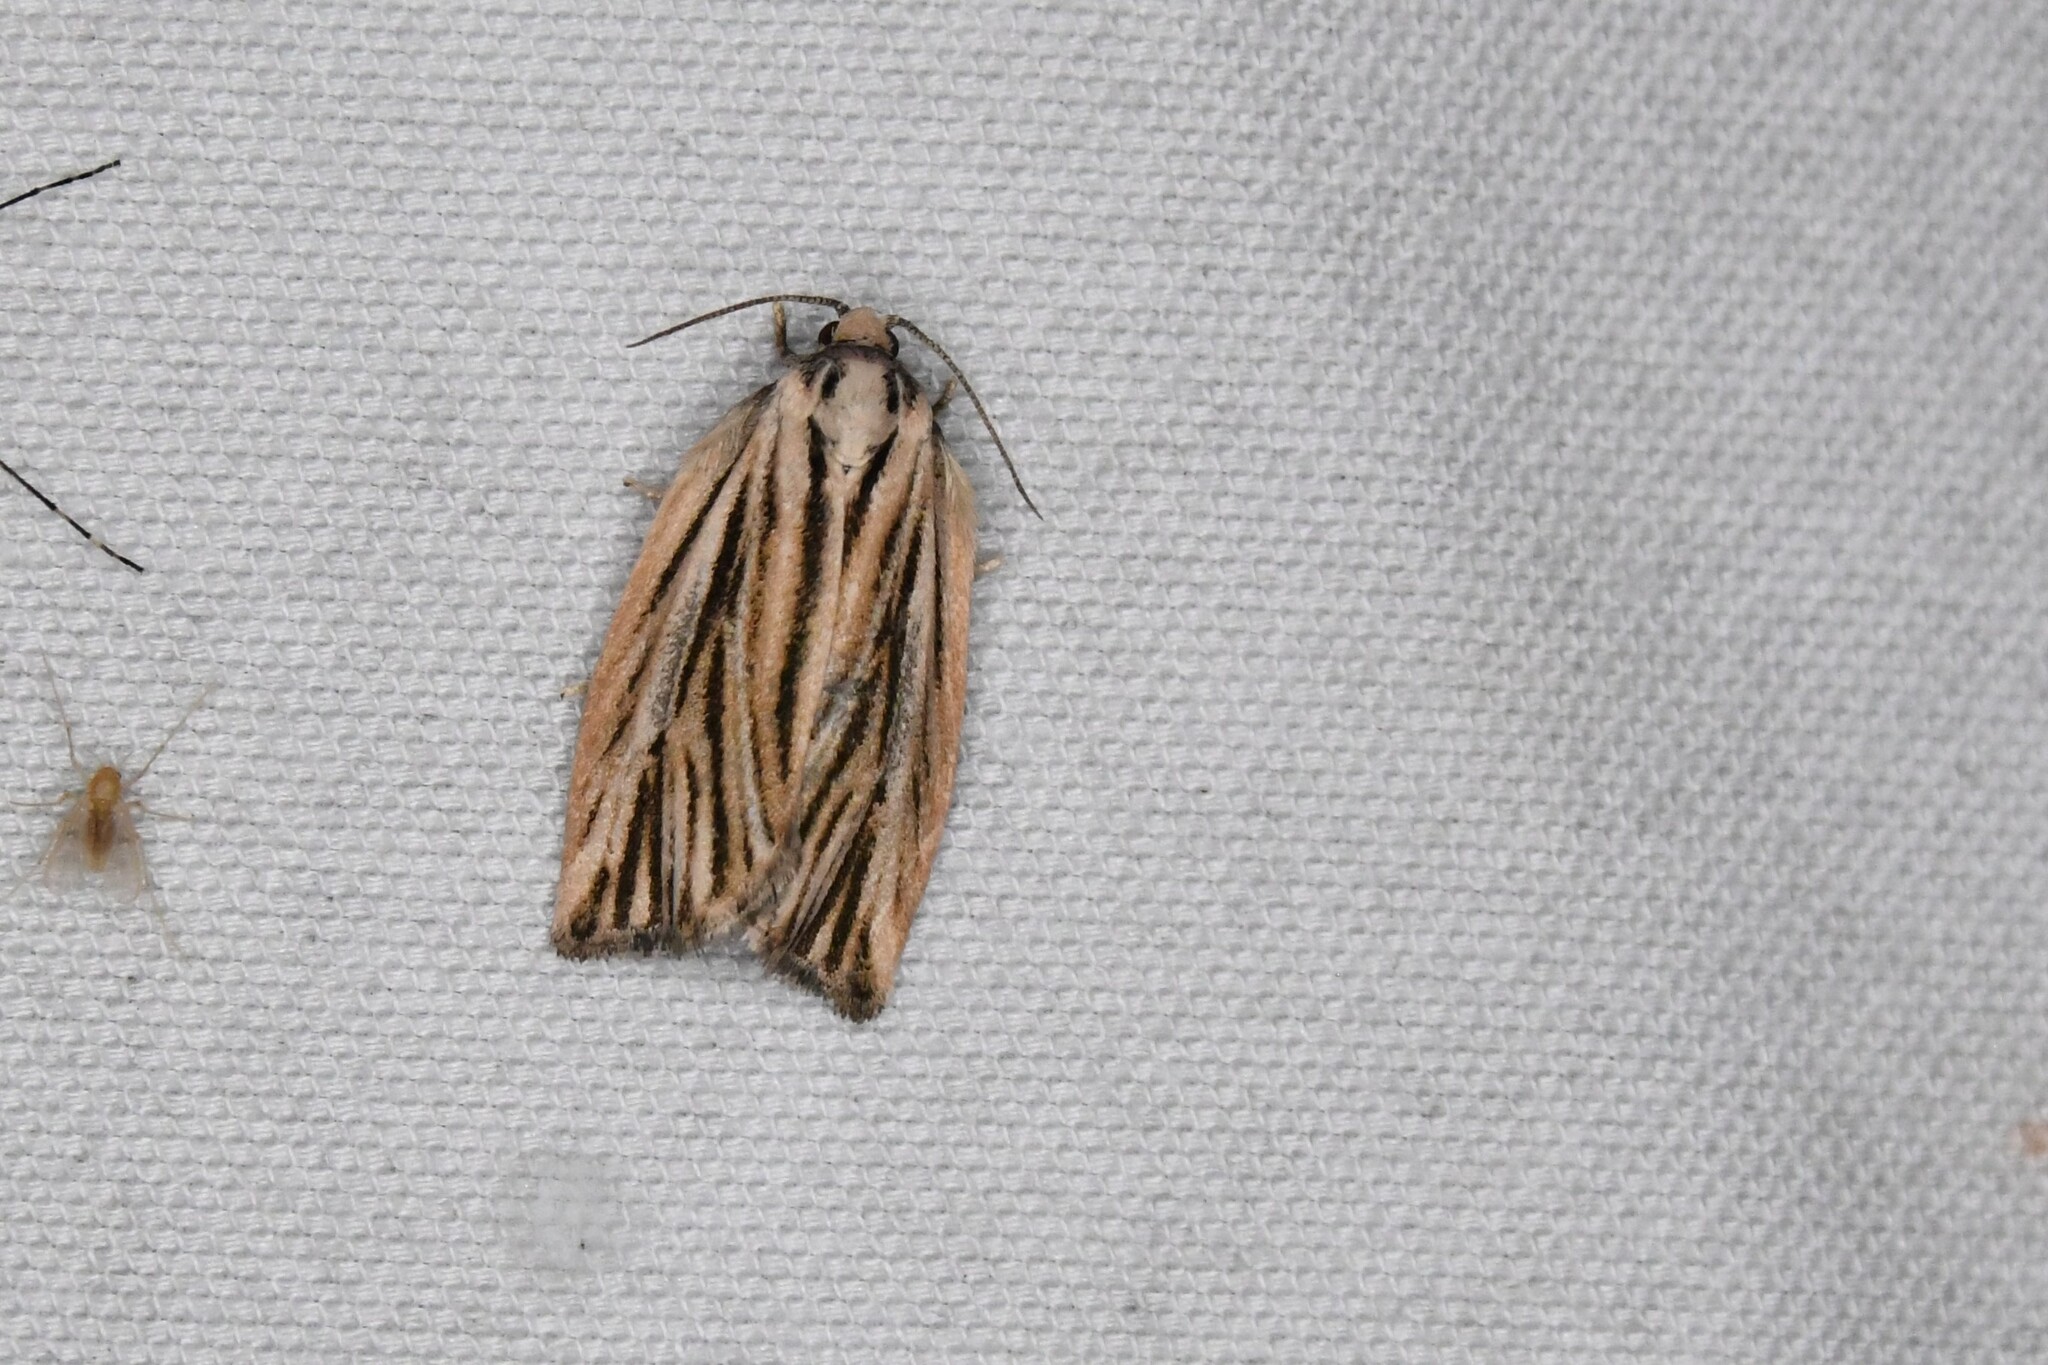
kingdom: Animalia
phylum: Arthropoda
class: Insecta
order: Lepidoptera
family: Tortricidae
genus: Archips
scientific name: Archips strianus
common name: Striated tortrix moth
